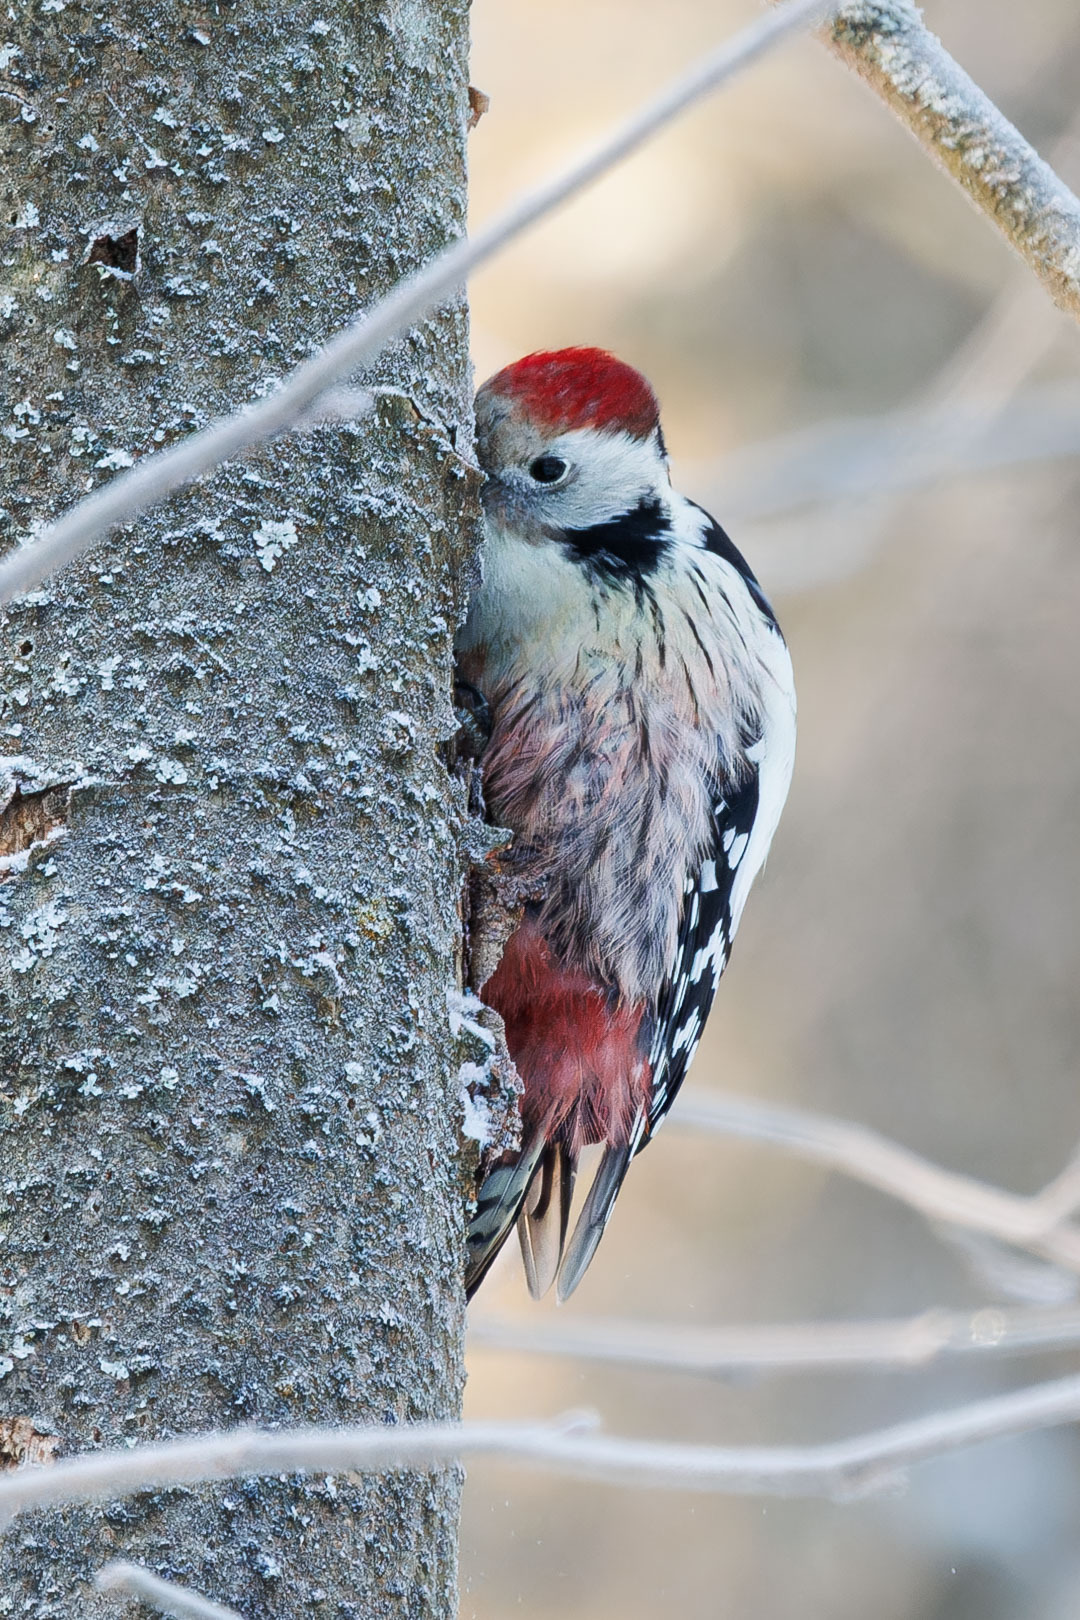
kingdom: Animalia
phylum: Chordata
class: Aves
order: Piciformes
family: Picidae
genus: Dendrocoptes
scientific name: Dendrocoptes medius
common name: Middle spotted woodpecker
